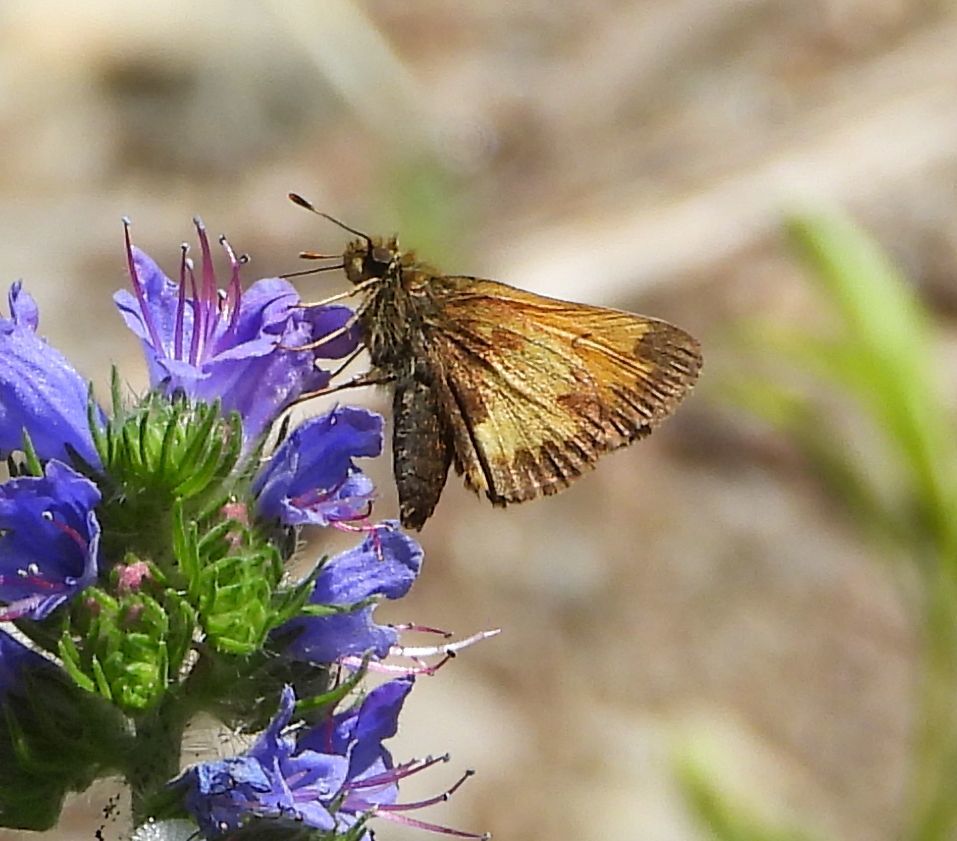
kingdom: Animalia
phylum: Arthropoda
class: Insecta
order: Lepidoptera
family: Hesperiidae
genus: Lon
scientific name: Lon hobomok
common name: Hobomok skipper
